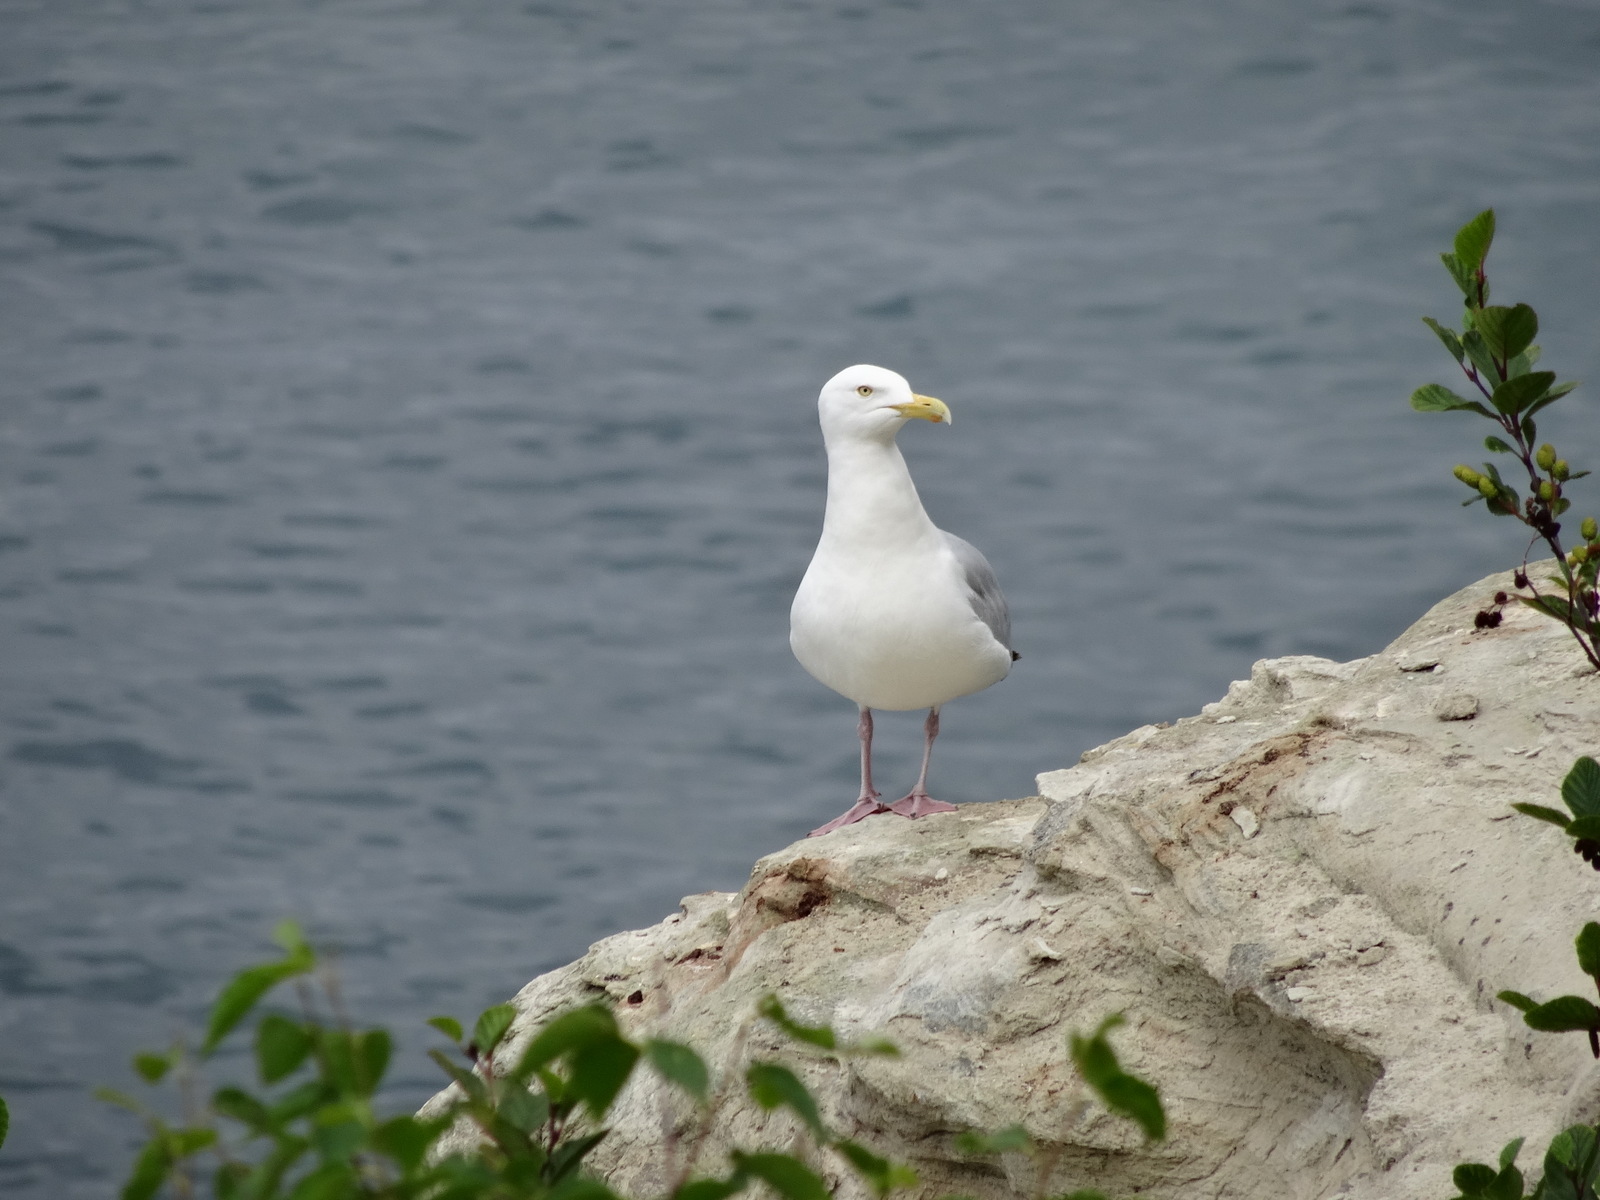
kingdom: Animalia
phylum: Chordata
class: Aves
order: Charadriiformes
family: Laridae
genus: Larus
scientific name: Larus argentatus
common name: Herring gull
